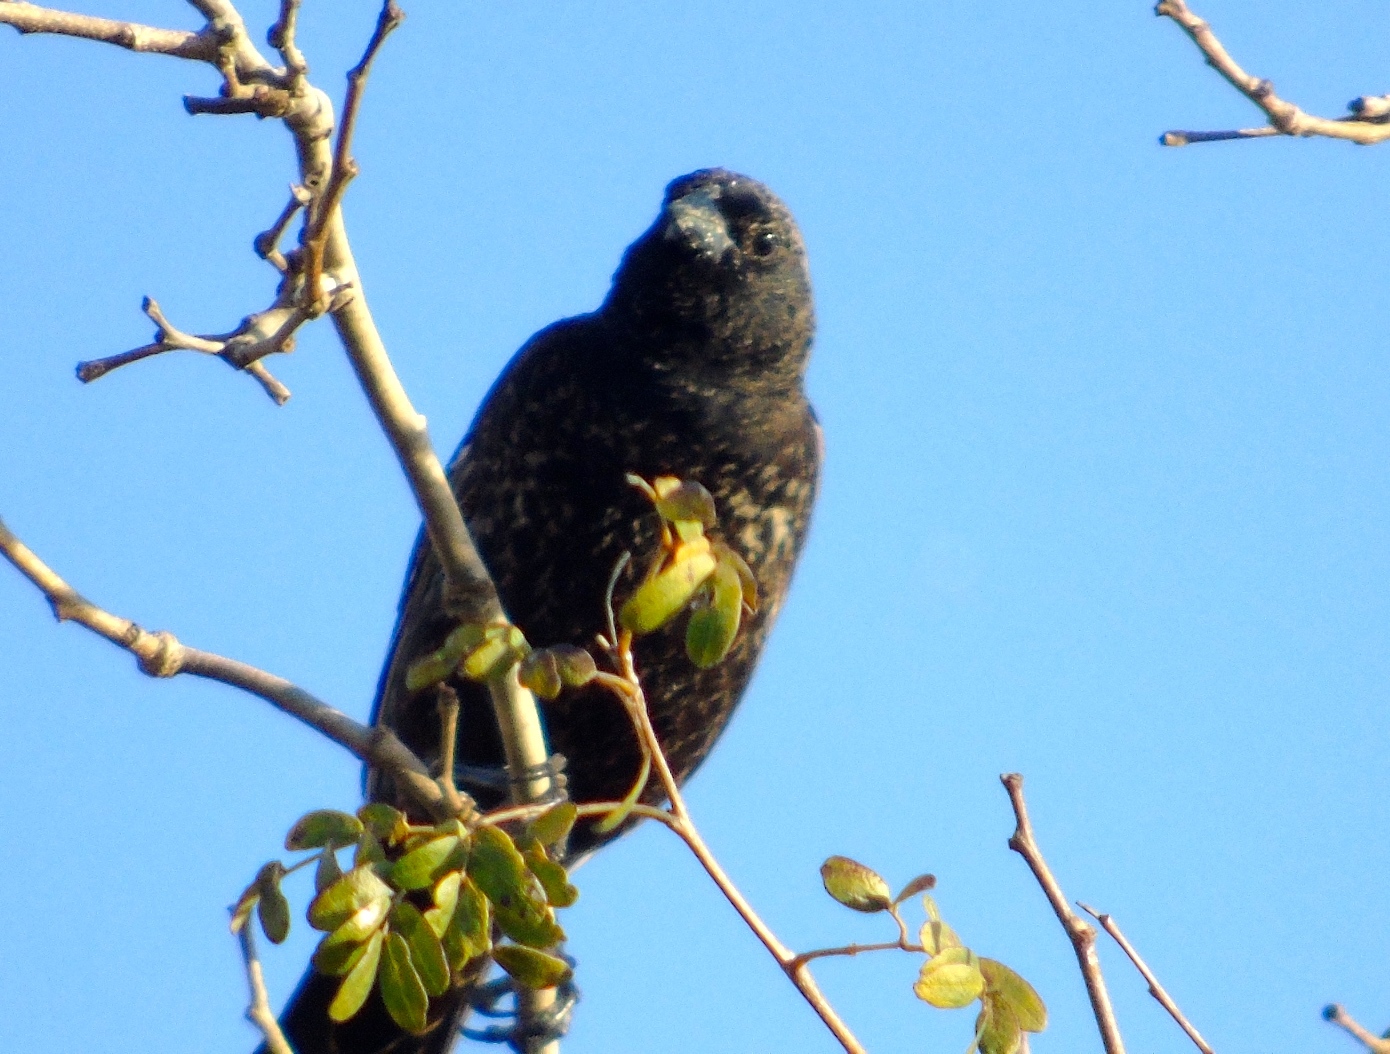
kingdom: Animalia
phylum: Chordata
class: Aves
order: Passeriformes
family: Thraupidae
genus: Volatinia
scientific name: Volatinia jacarina
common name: Blue-black grassquit
